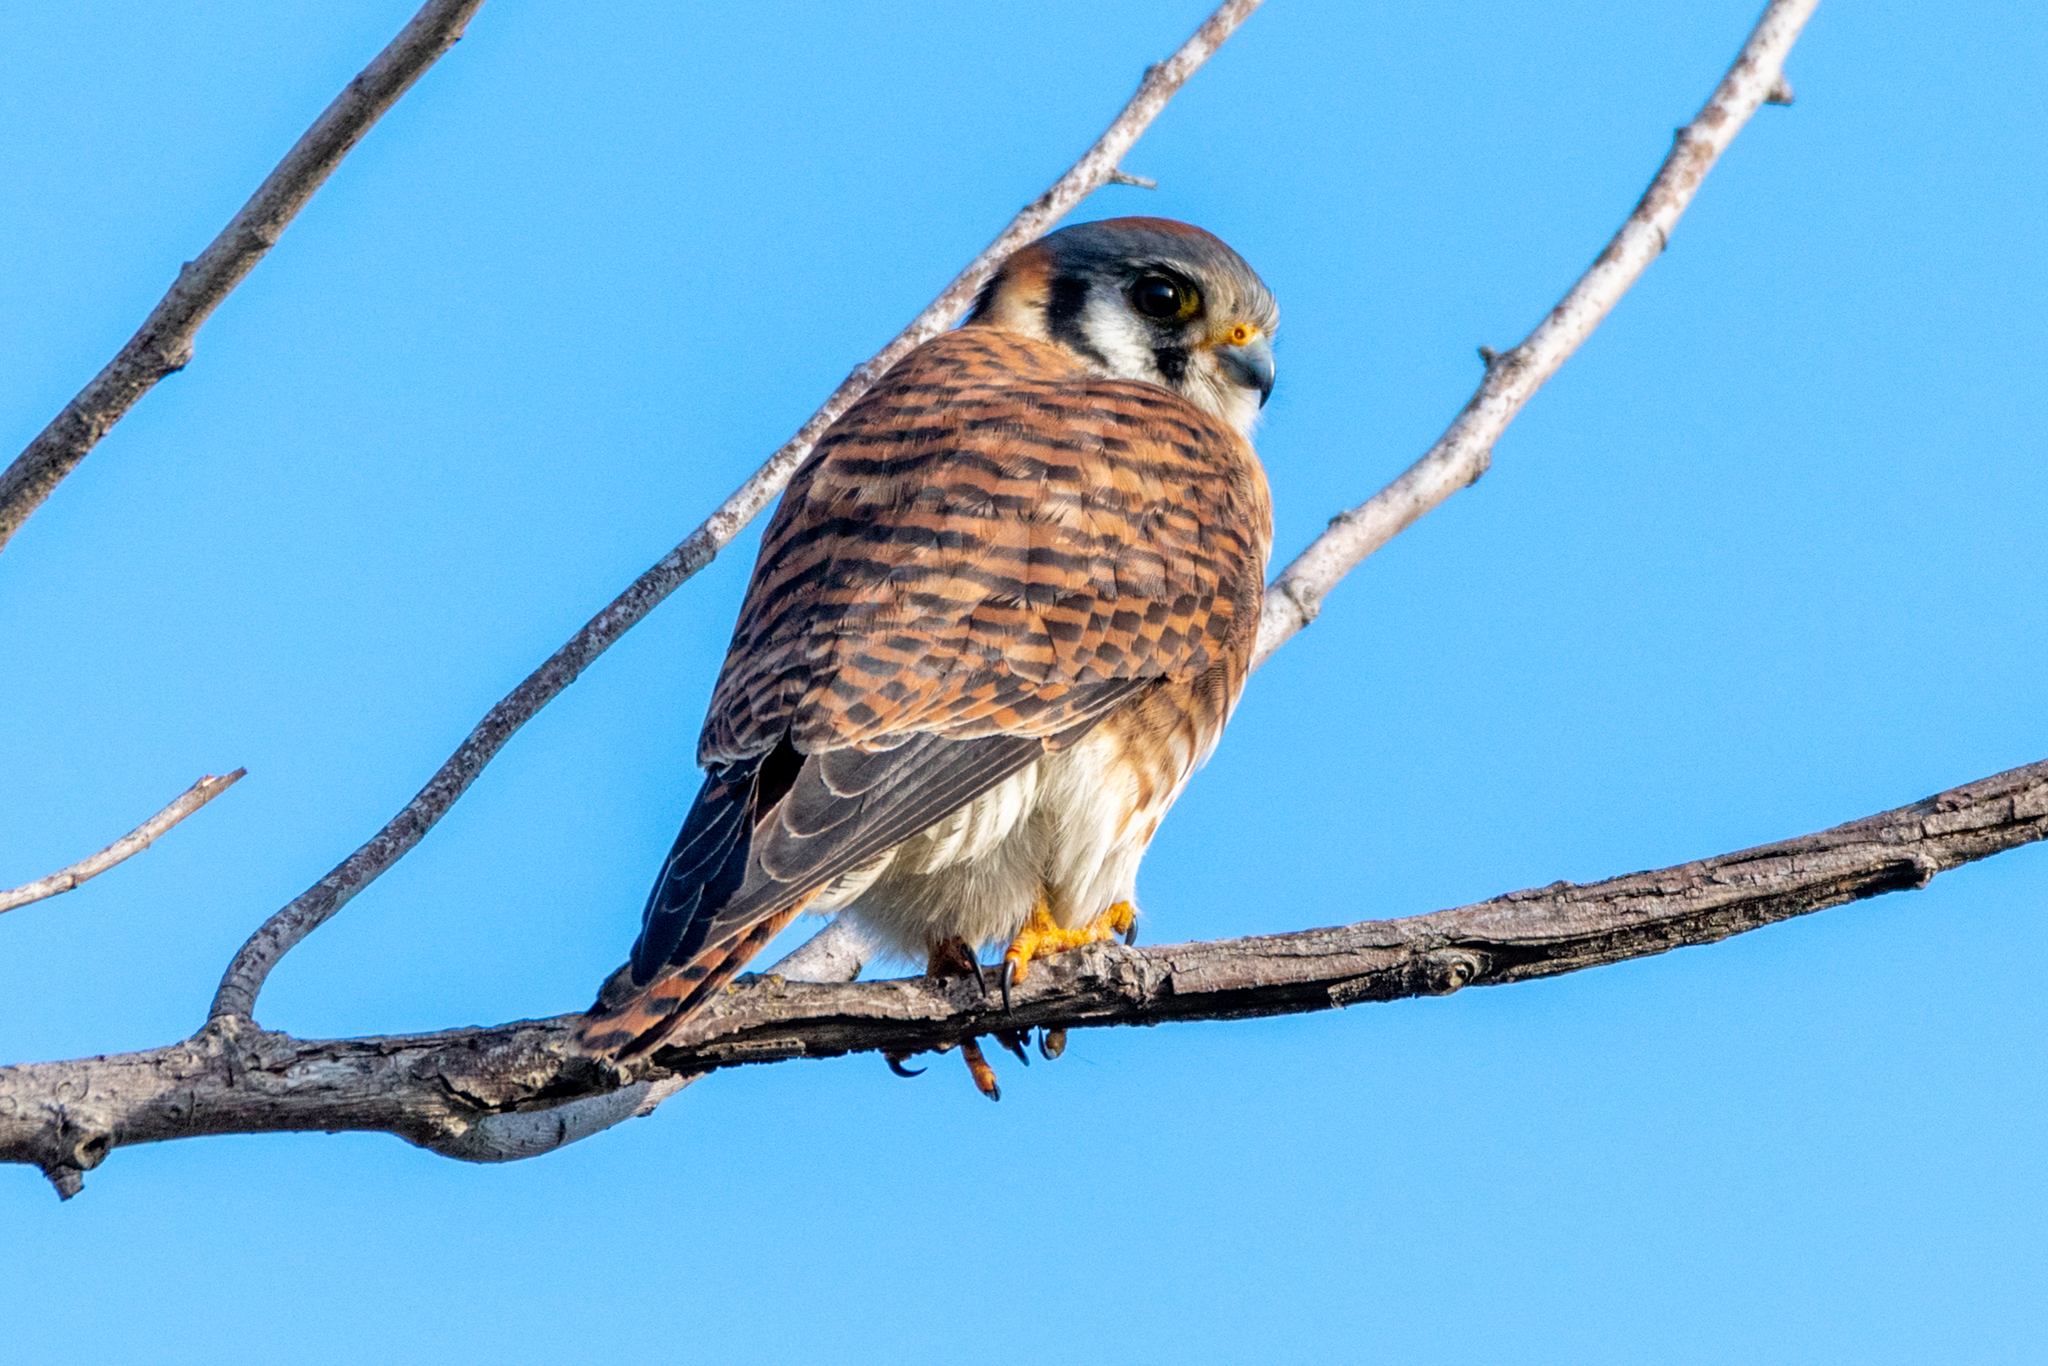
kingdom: Animalia
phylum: Chordata
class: Aves
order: Falconiformes
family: Falconidae
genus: Falco
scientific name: Falco sparverius
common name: American kestrel
